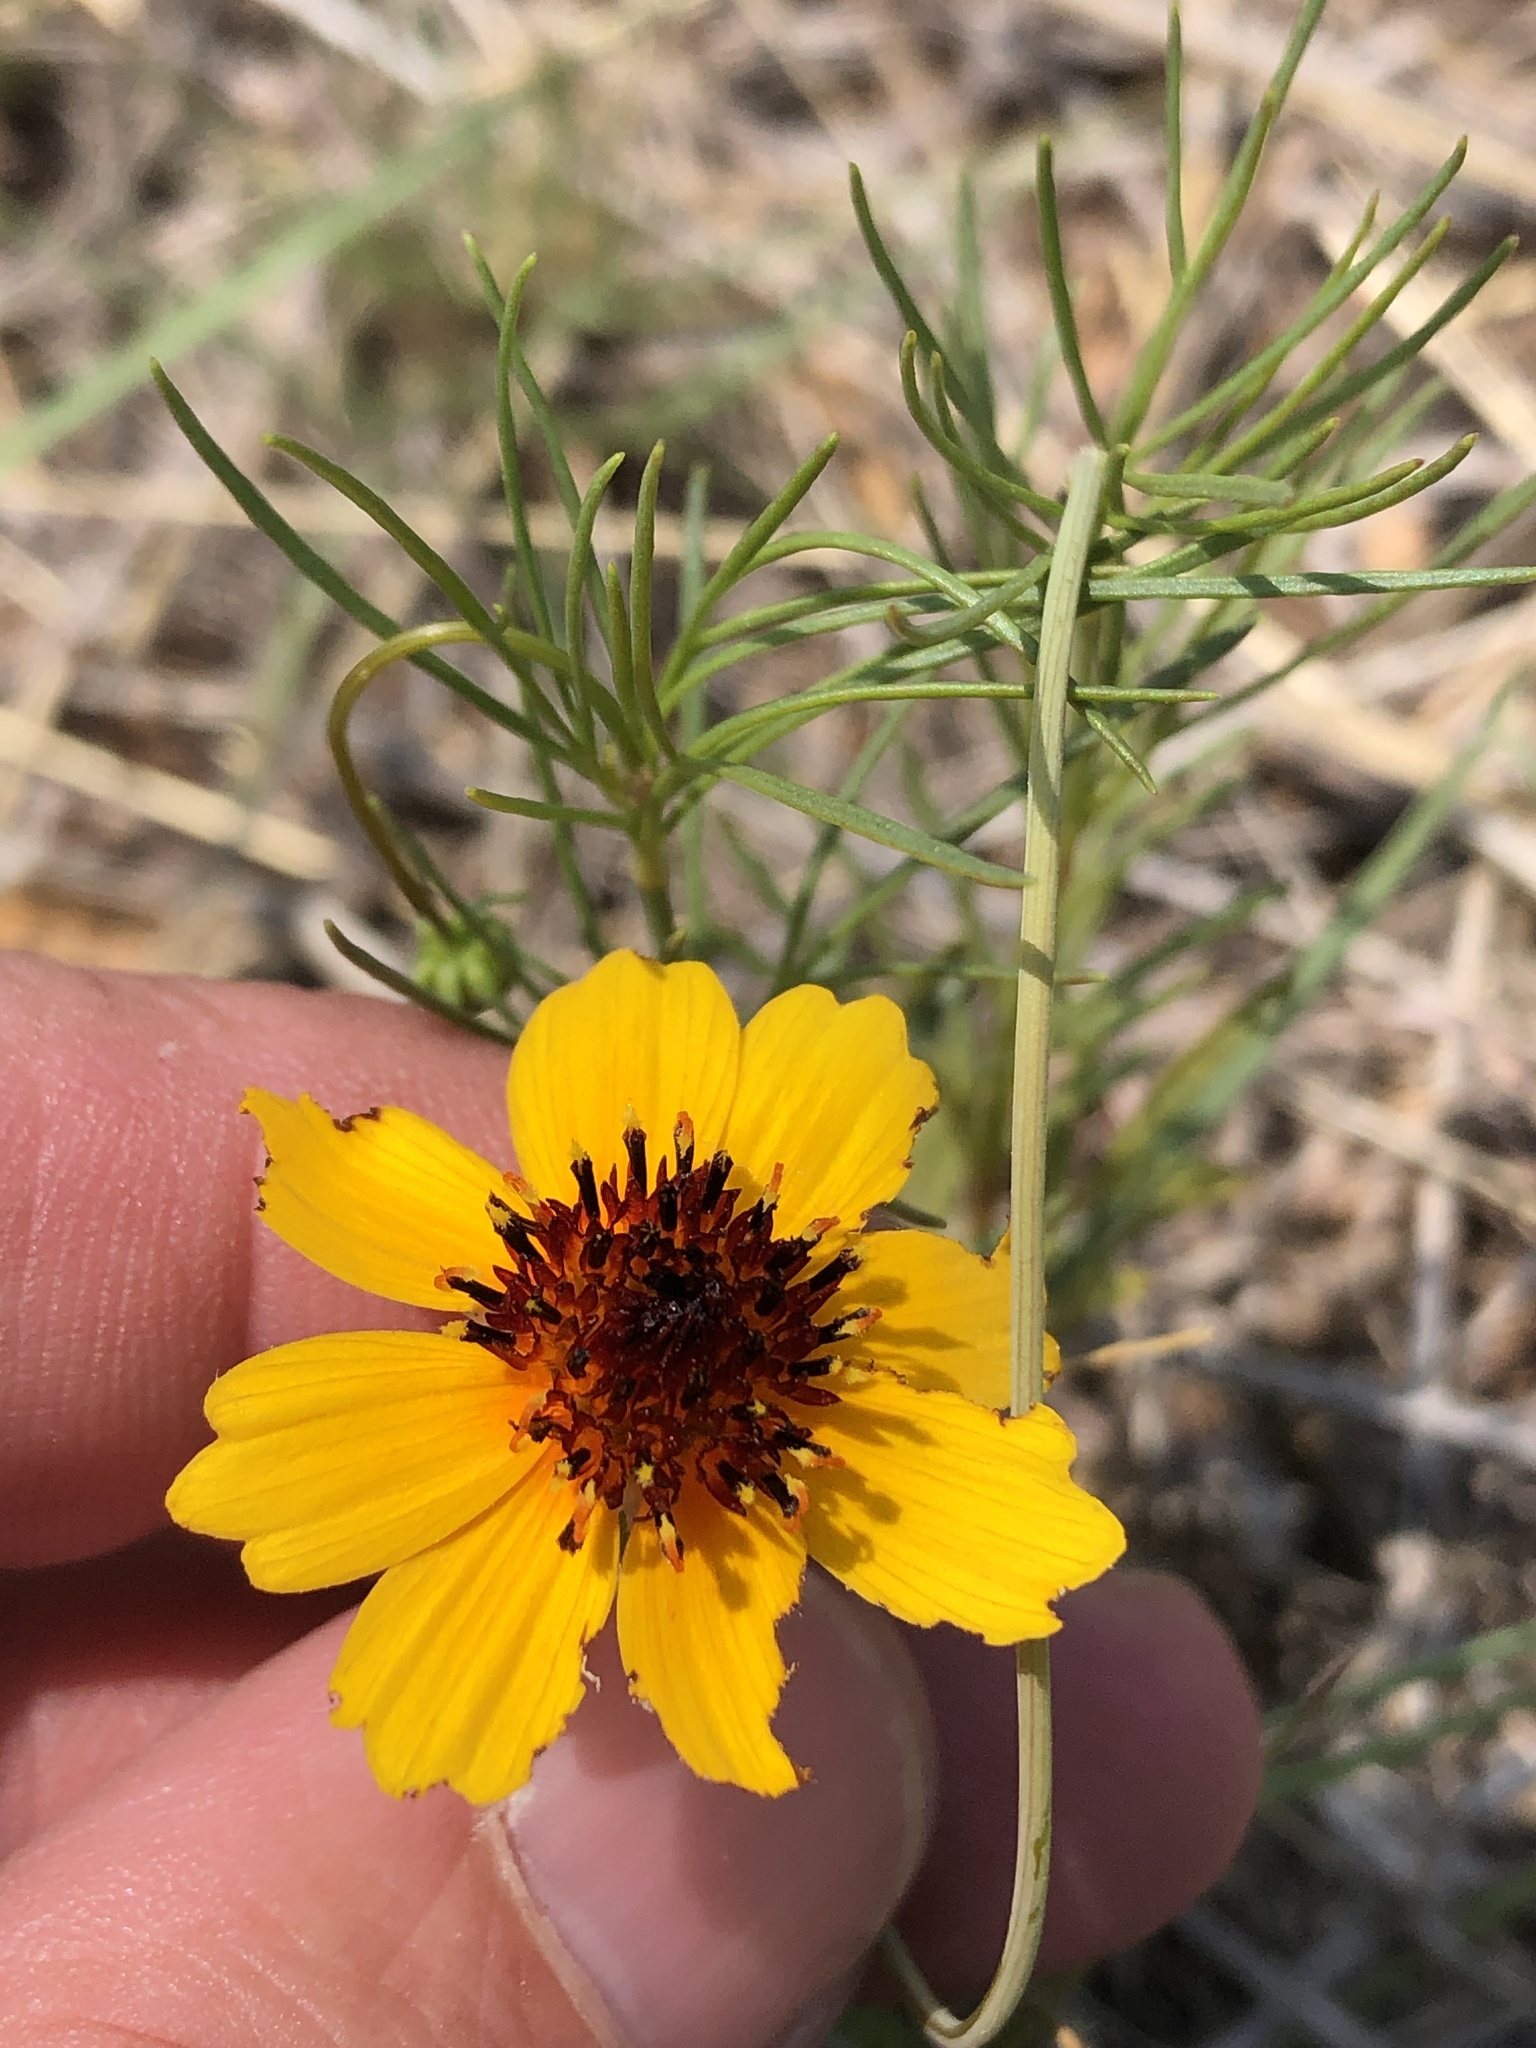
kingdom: Plantae
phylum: Tracheophyta
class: Magnoliopsida
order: Asterales
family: Asteraceae
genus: Thelesperma
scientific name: Thelesperma filifolium
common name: Stiff greenthread
